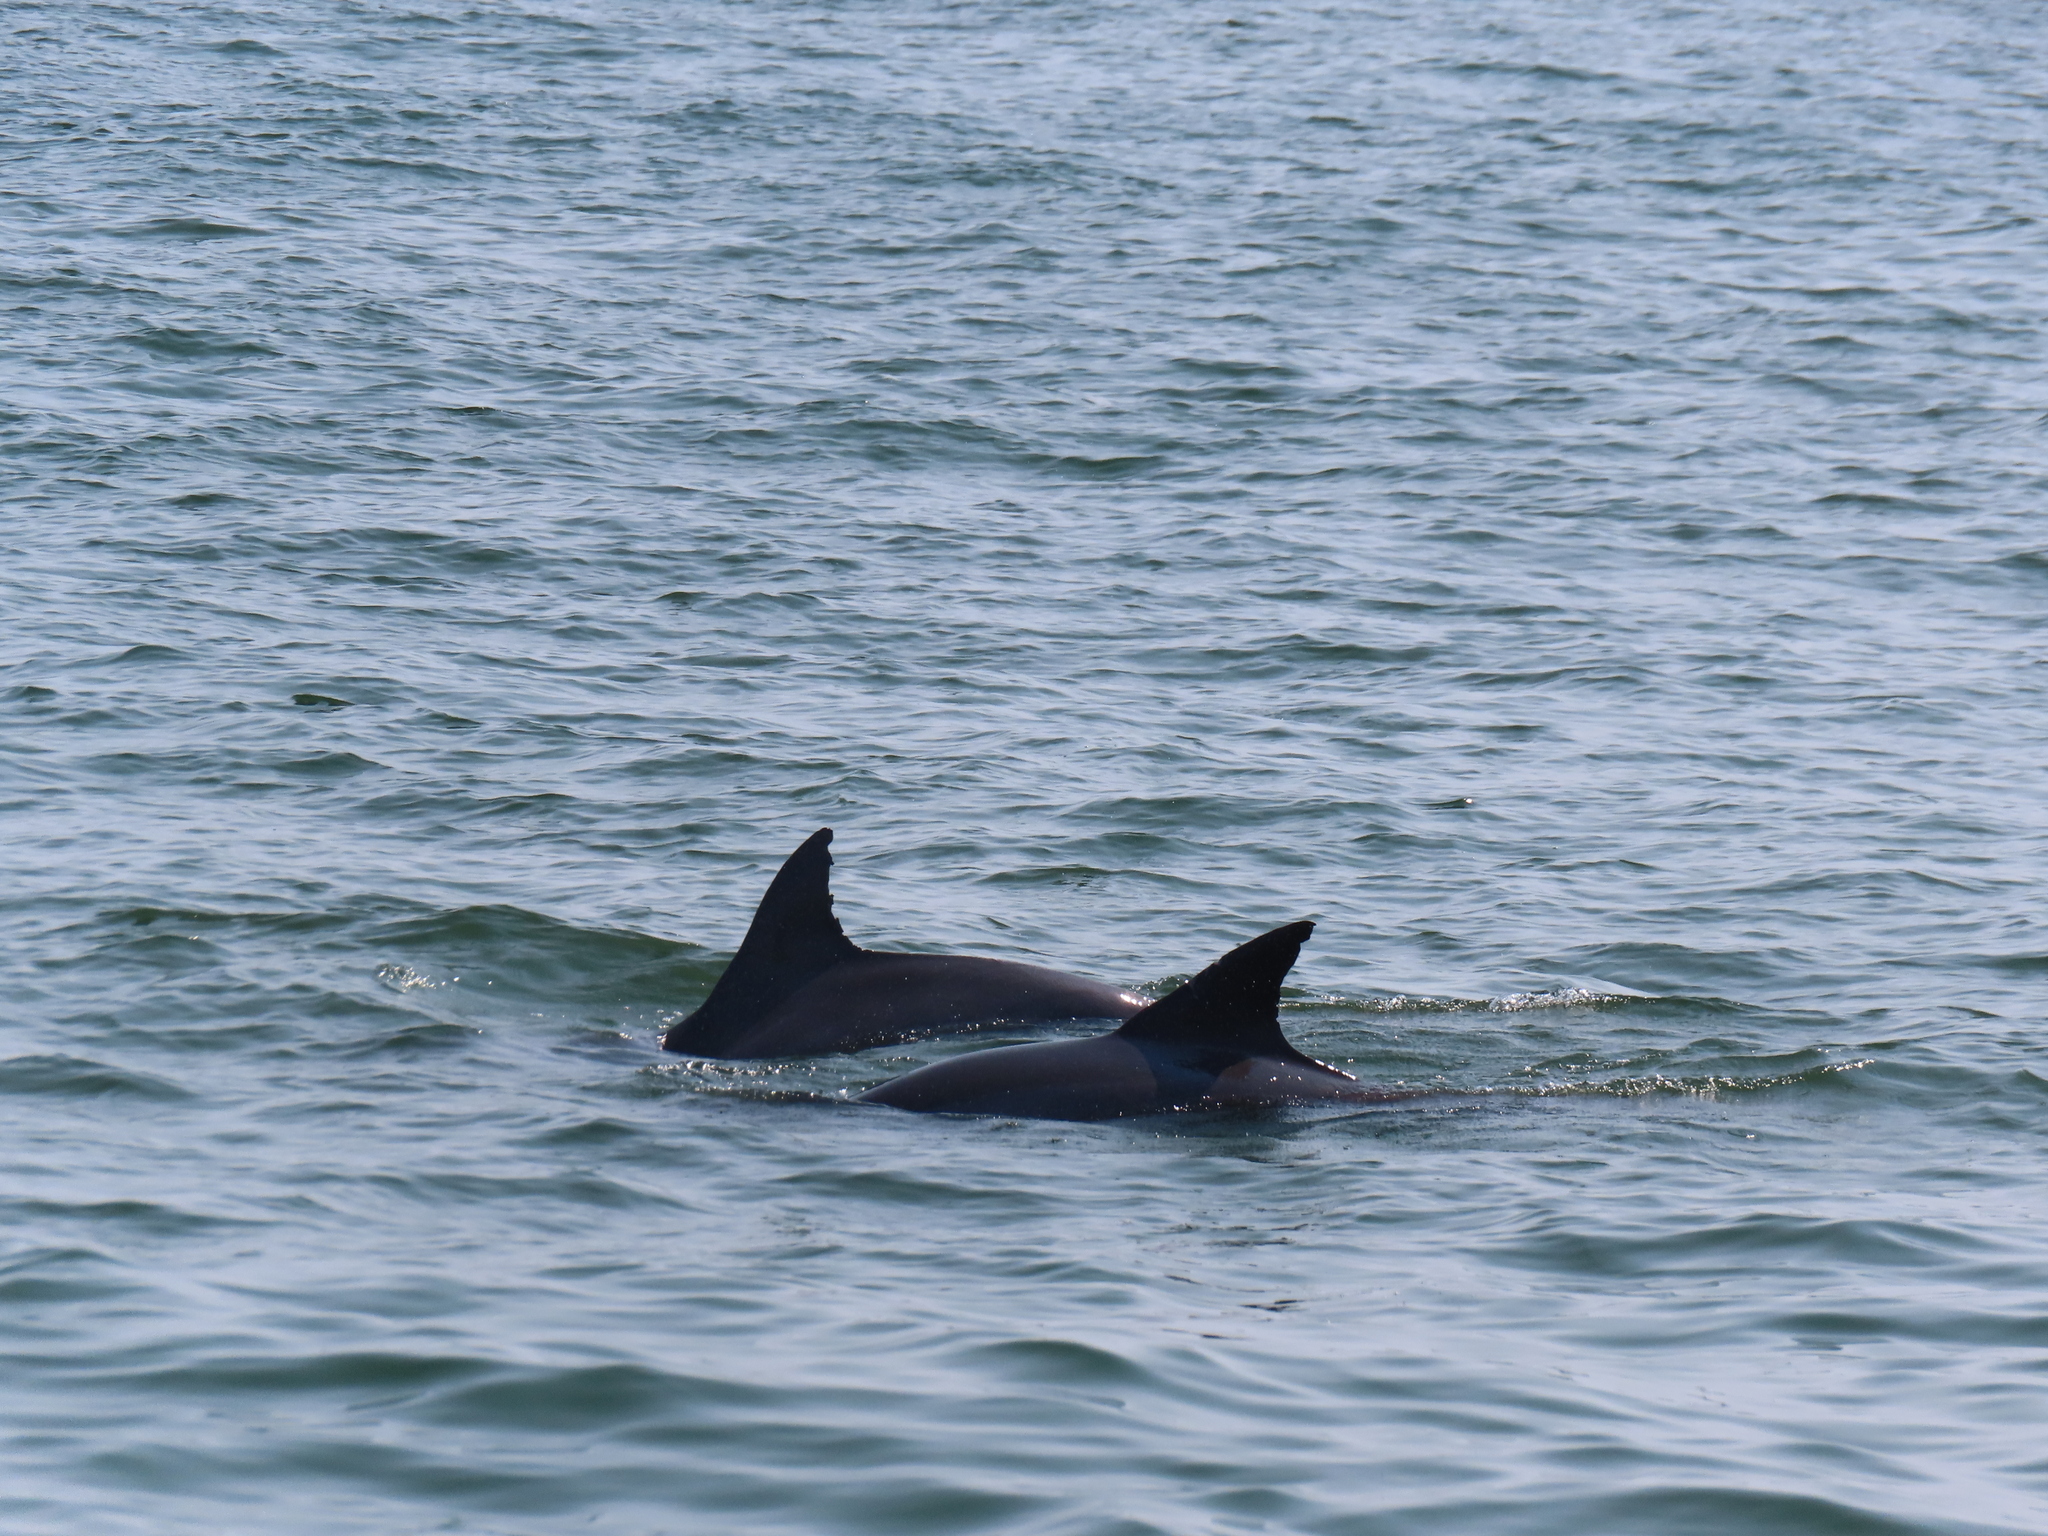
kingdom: Animalia
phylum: Chordata
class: Mammalia
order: Cetacea
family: Delphinidae
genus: Tursiops
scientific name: Tursiops truncatus
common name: Bottlenose dolphin
